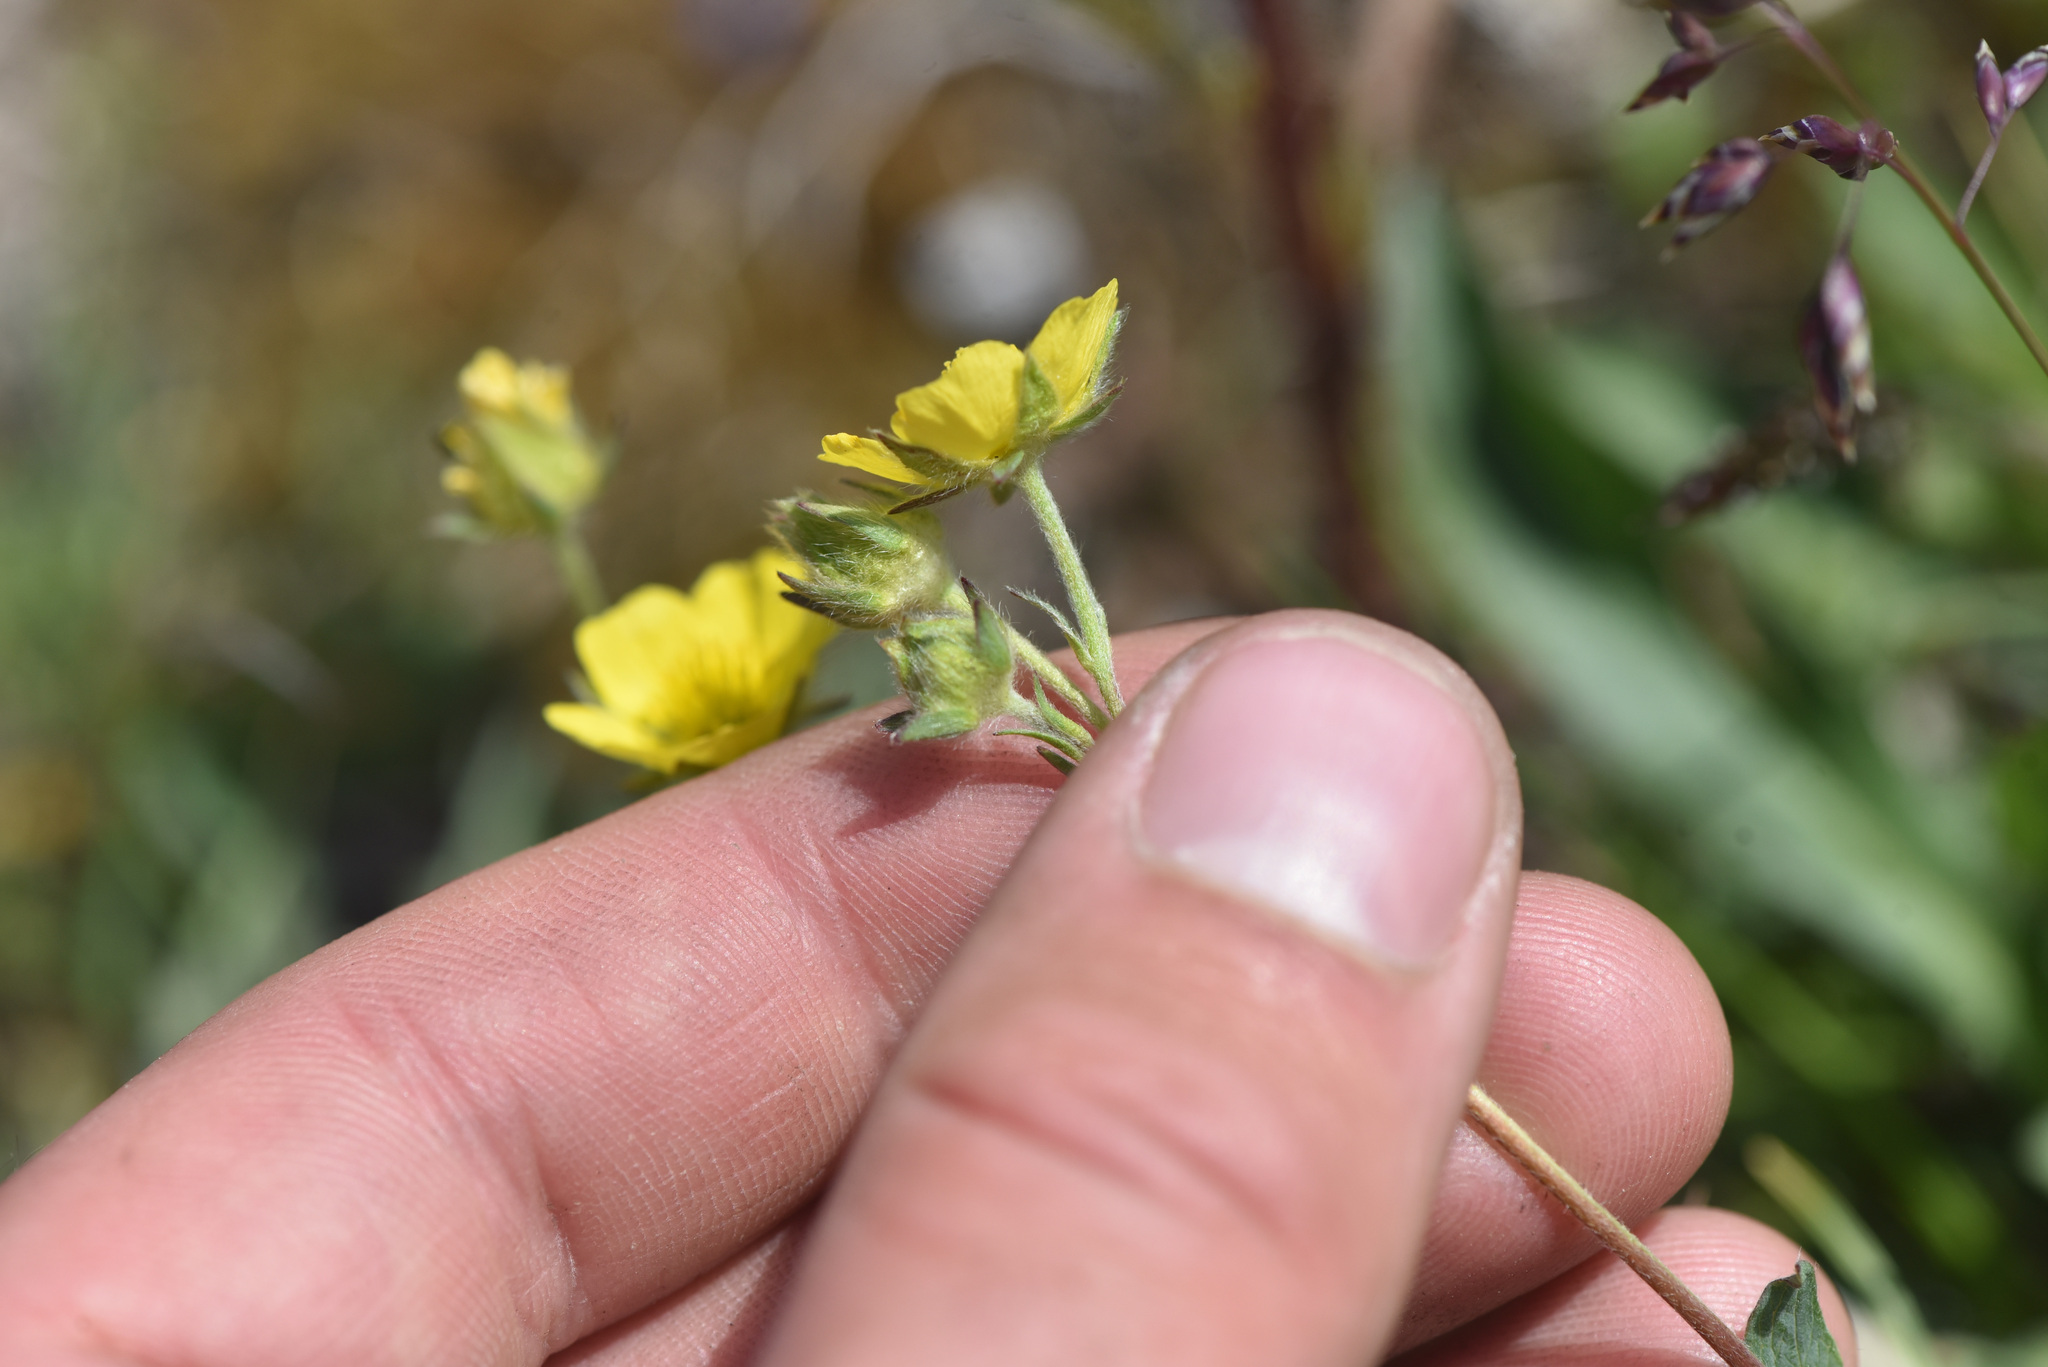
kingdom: Plantae
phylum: Tracheophyta
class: Magnoliopsida
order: Rosales
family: Rosaceae
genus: Potentilla
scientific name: Potentilla glaucophylla
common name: Blue-leaved cinquefoil
